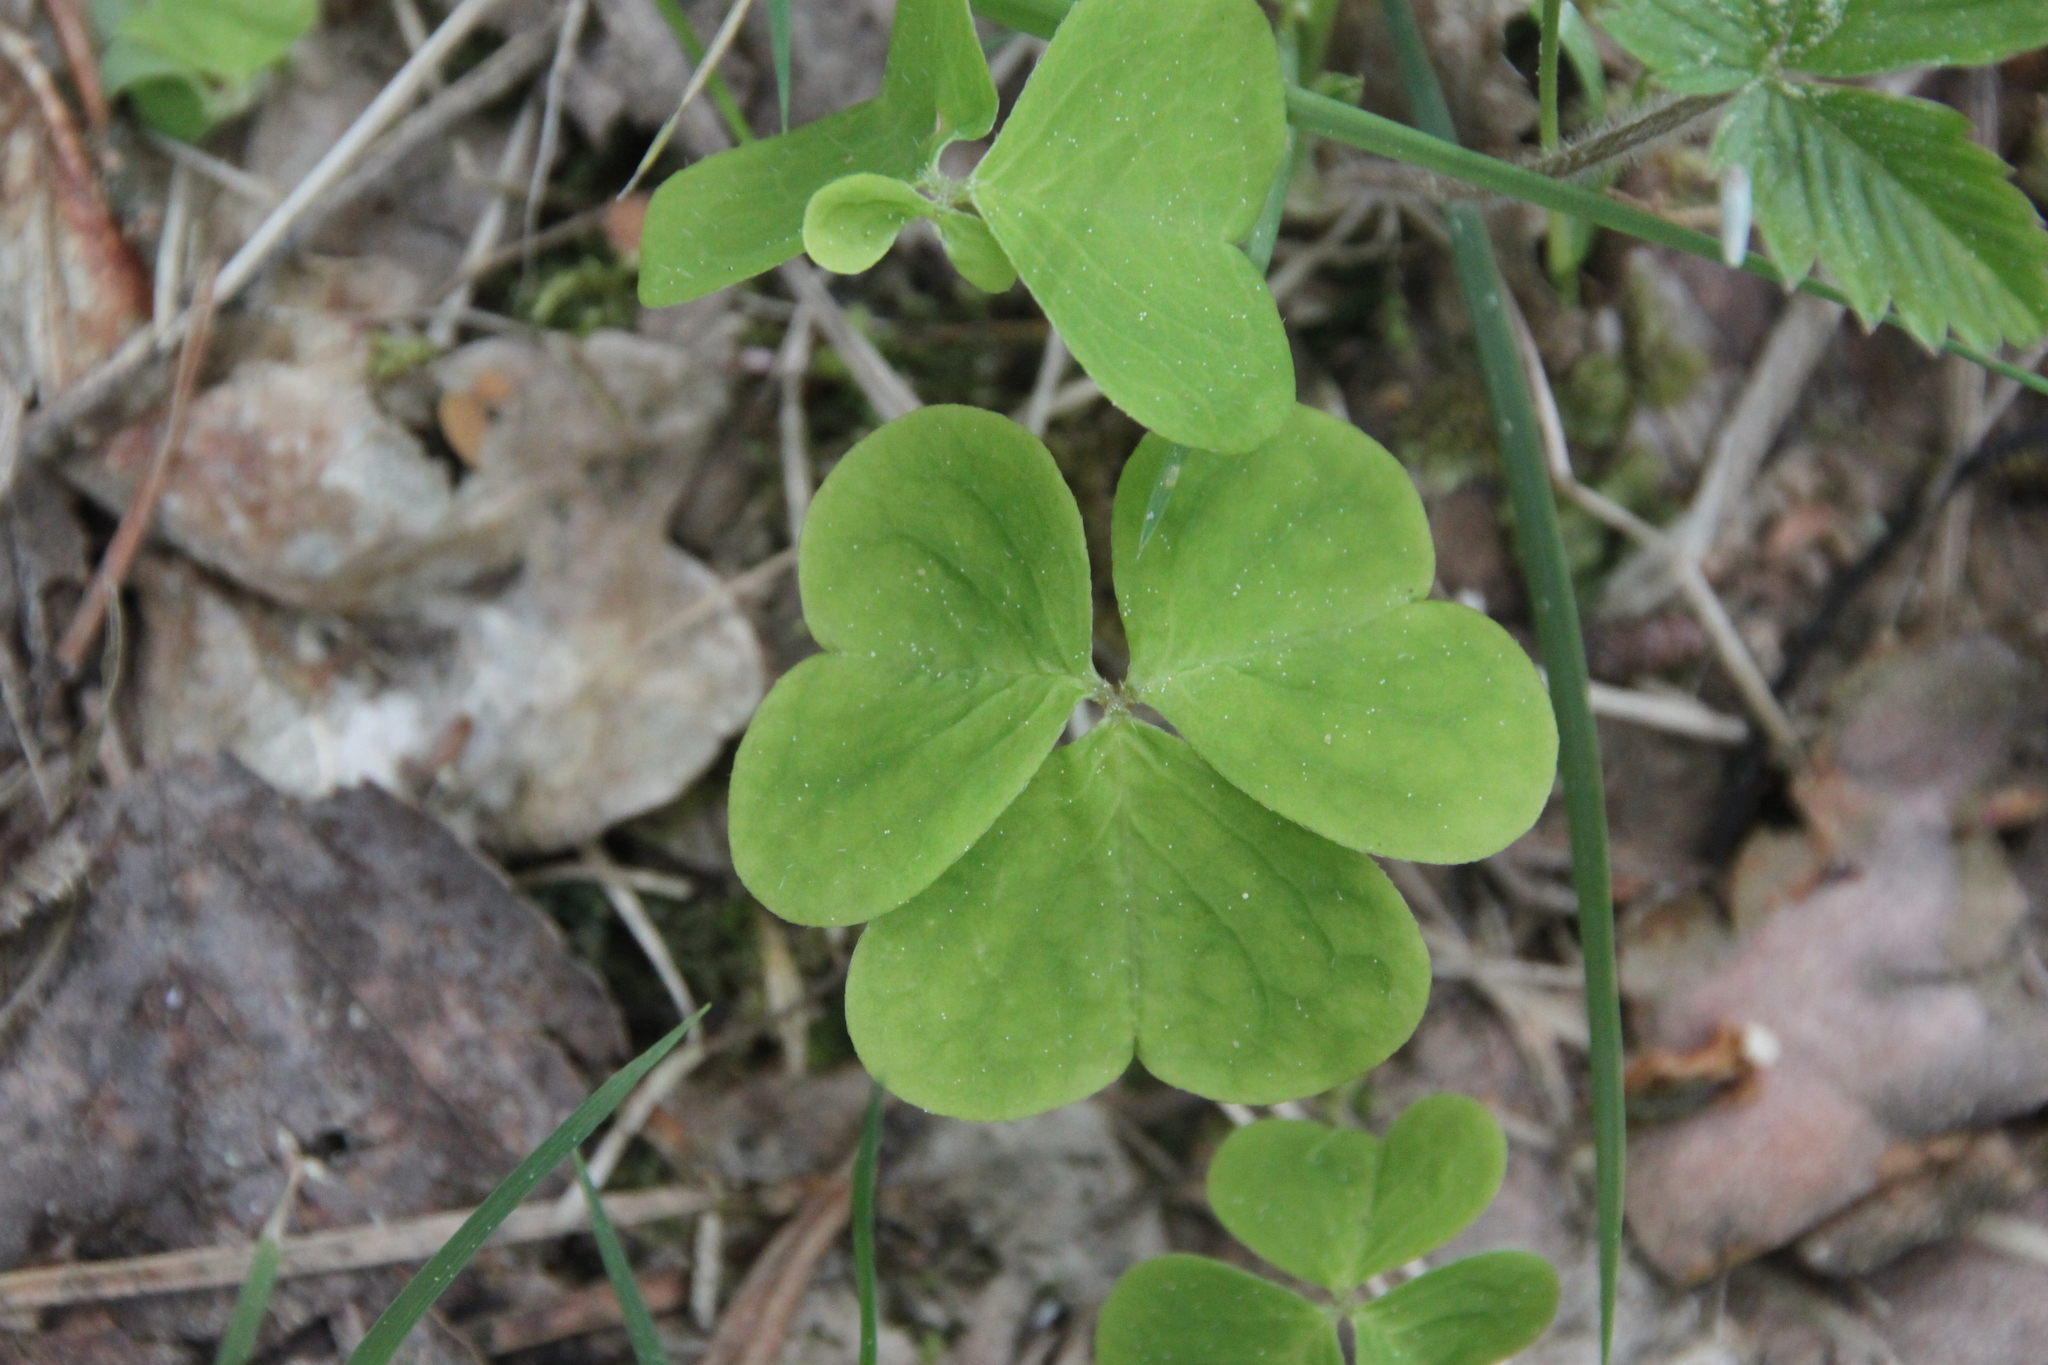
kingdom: Plantae
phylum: Tracheophyta
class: Magnoliopsida
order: Oxalidales
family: Oxalidaceae
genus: Oxalis
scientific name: Oxalis acetosella
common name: Wood-sorrel
